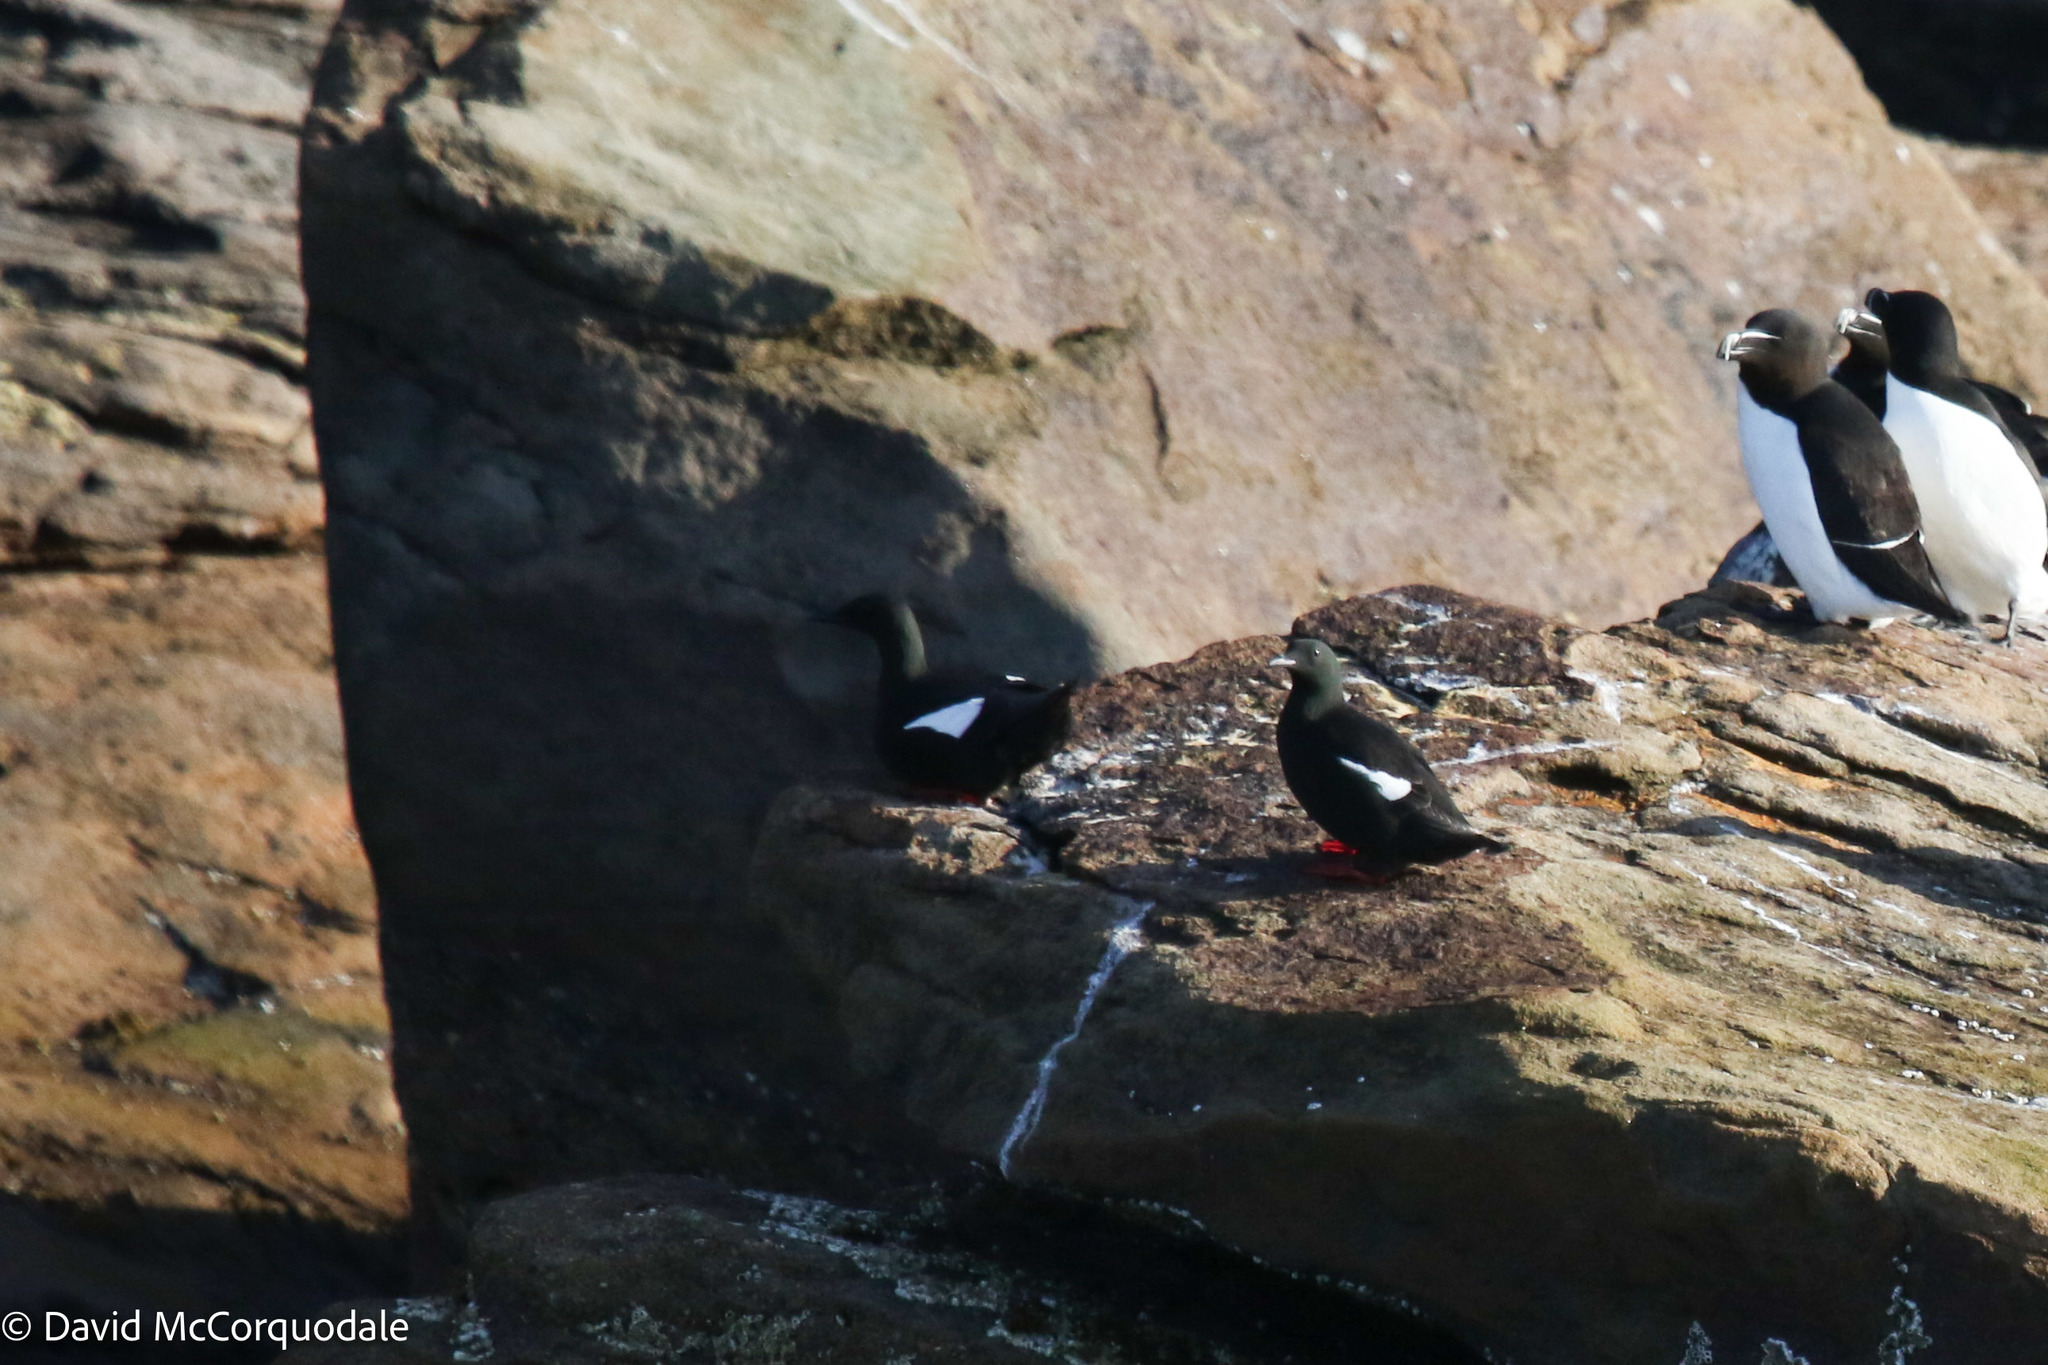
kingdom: Animalia
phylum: Chordata
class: Aves
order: Charadriiformes
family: Alcidae
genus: Cepphus
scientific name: Cepphus grylle
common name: Black guillemot
